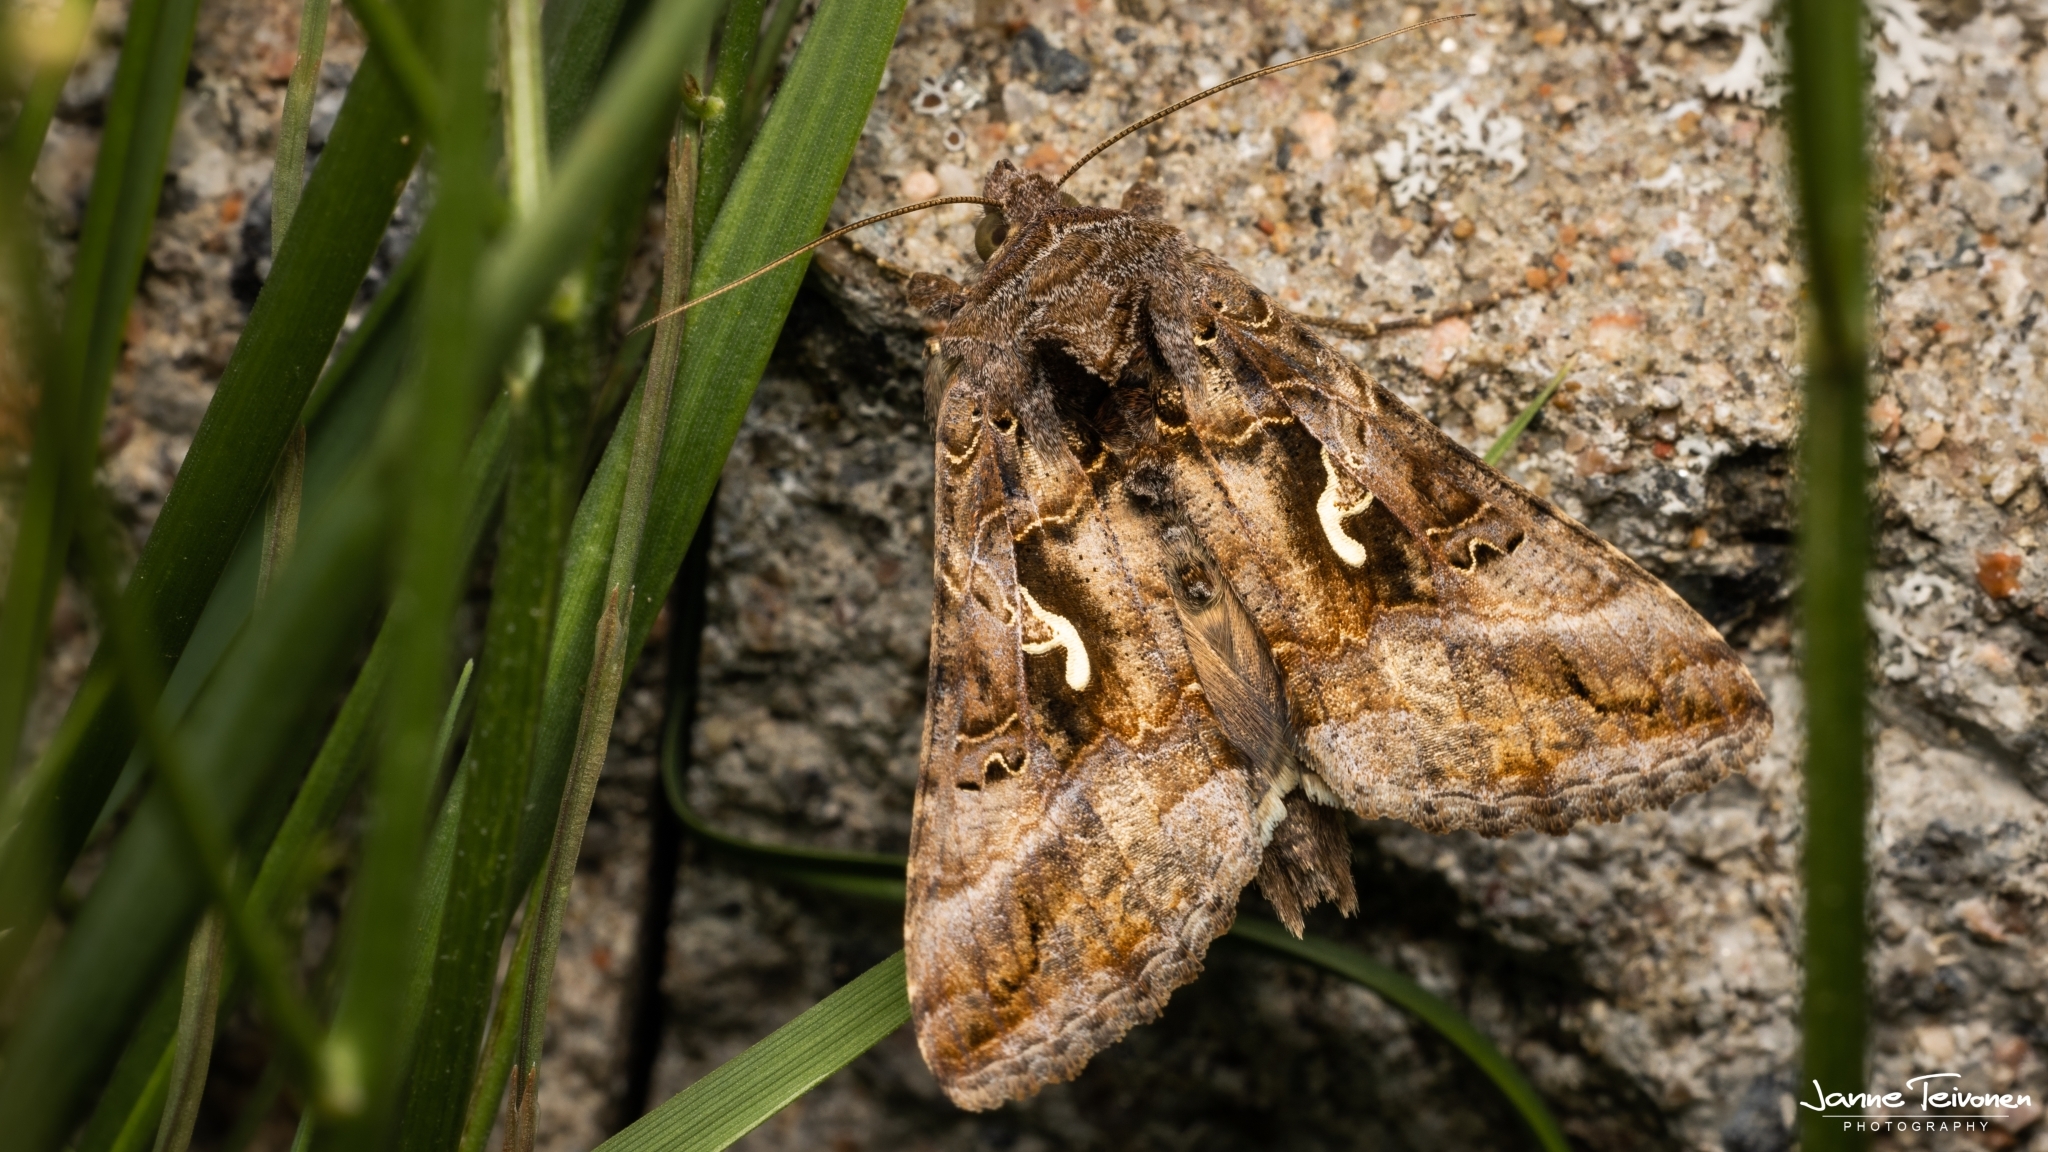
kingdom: Animalia
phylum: Arthropoda
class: Insecta
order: Lepidoptera
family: Noctuidae
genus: Autographa
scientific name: Autographa gamma
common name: Silver y
